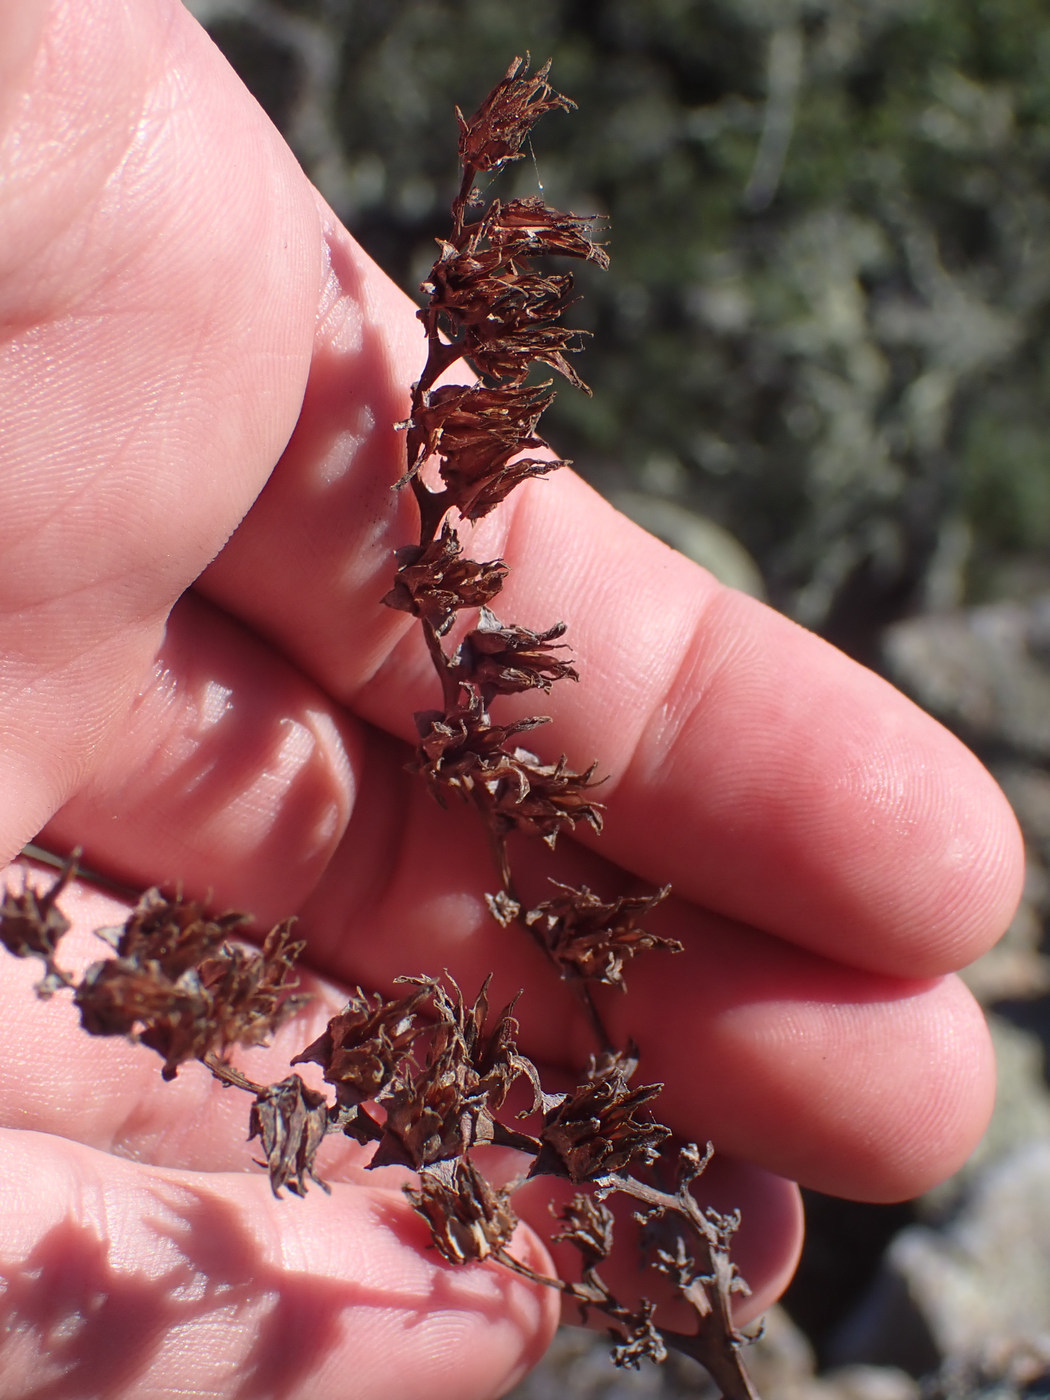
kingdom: Plantae
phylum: Tracheophyta
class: Magnoliopsida
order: Saxifragales
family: Crassulaceae
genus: Dudleya
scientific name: Dudleya greenei
